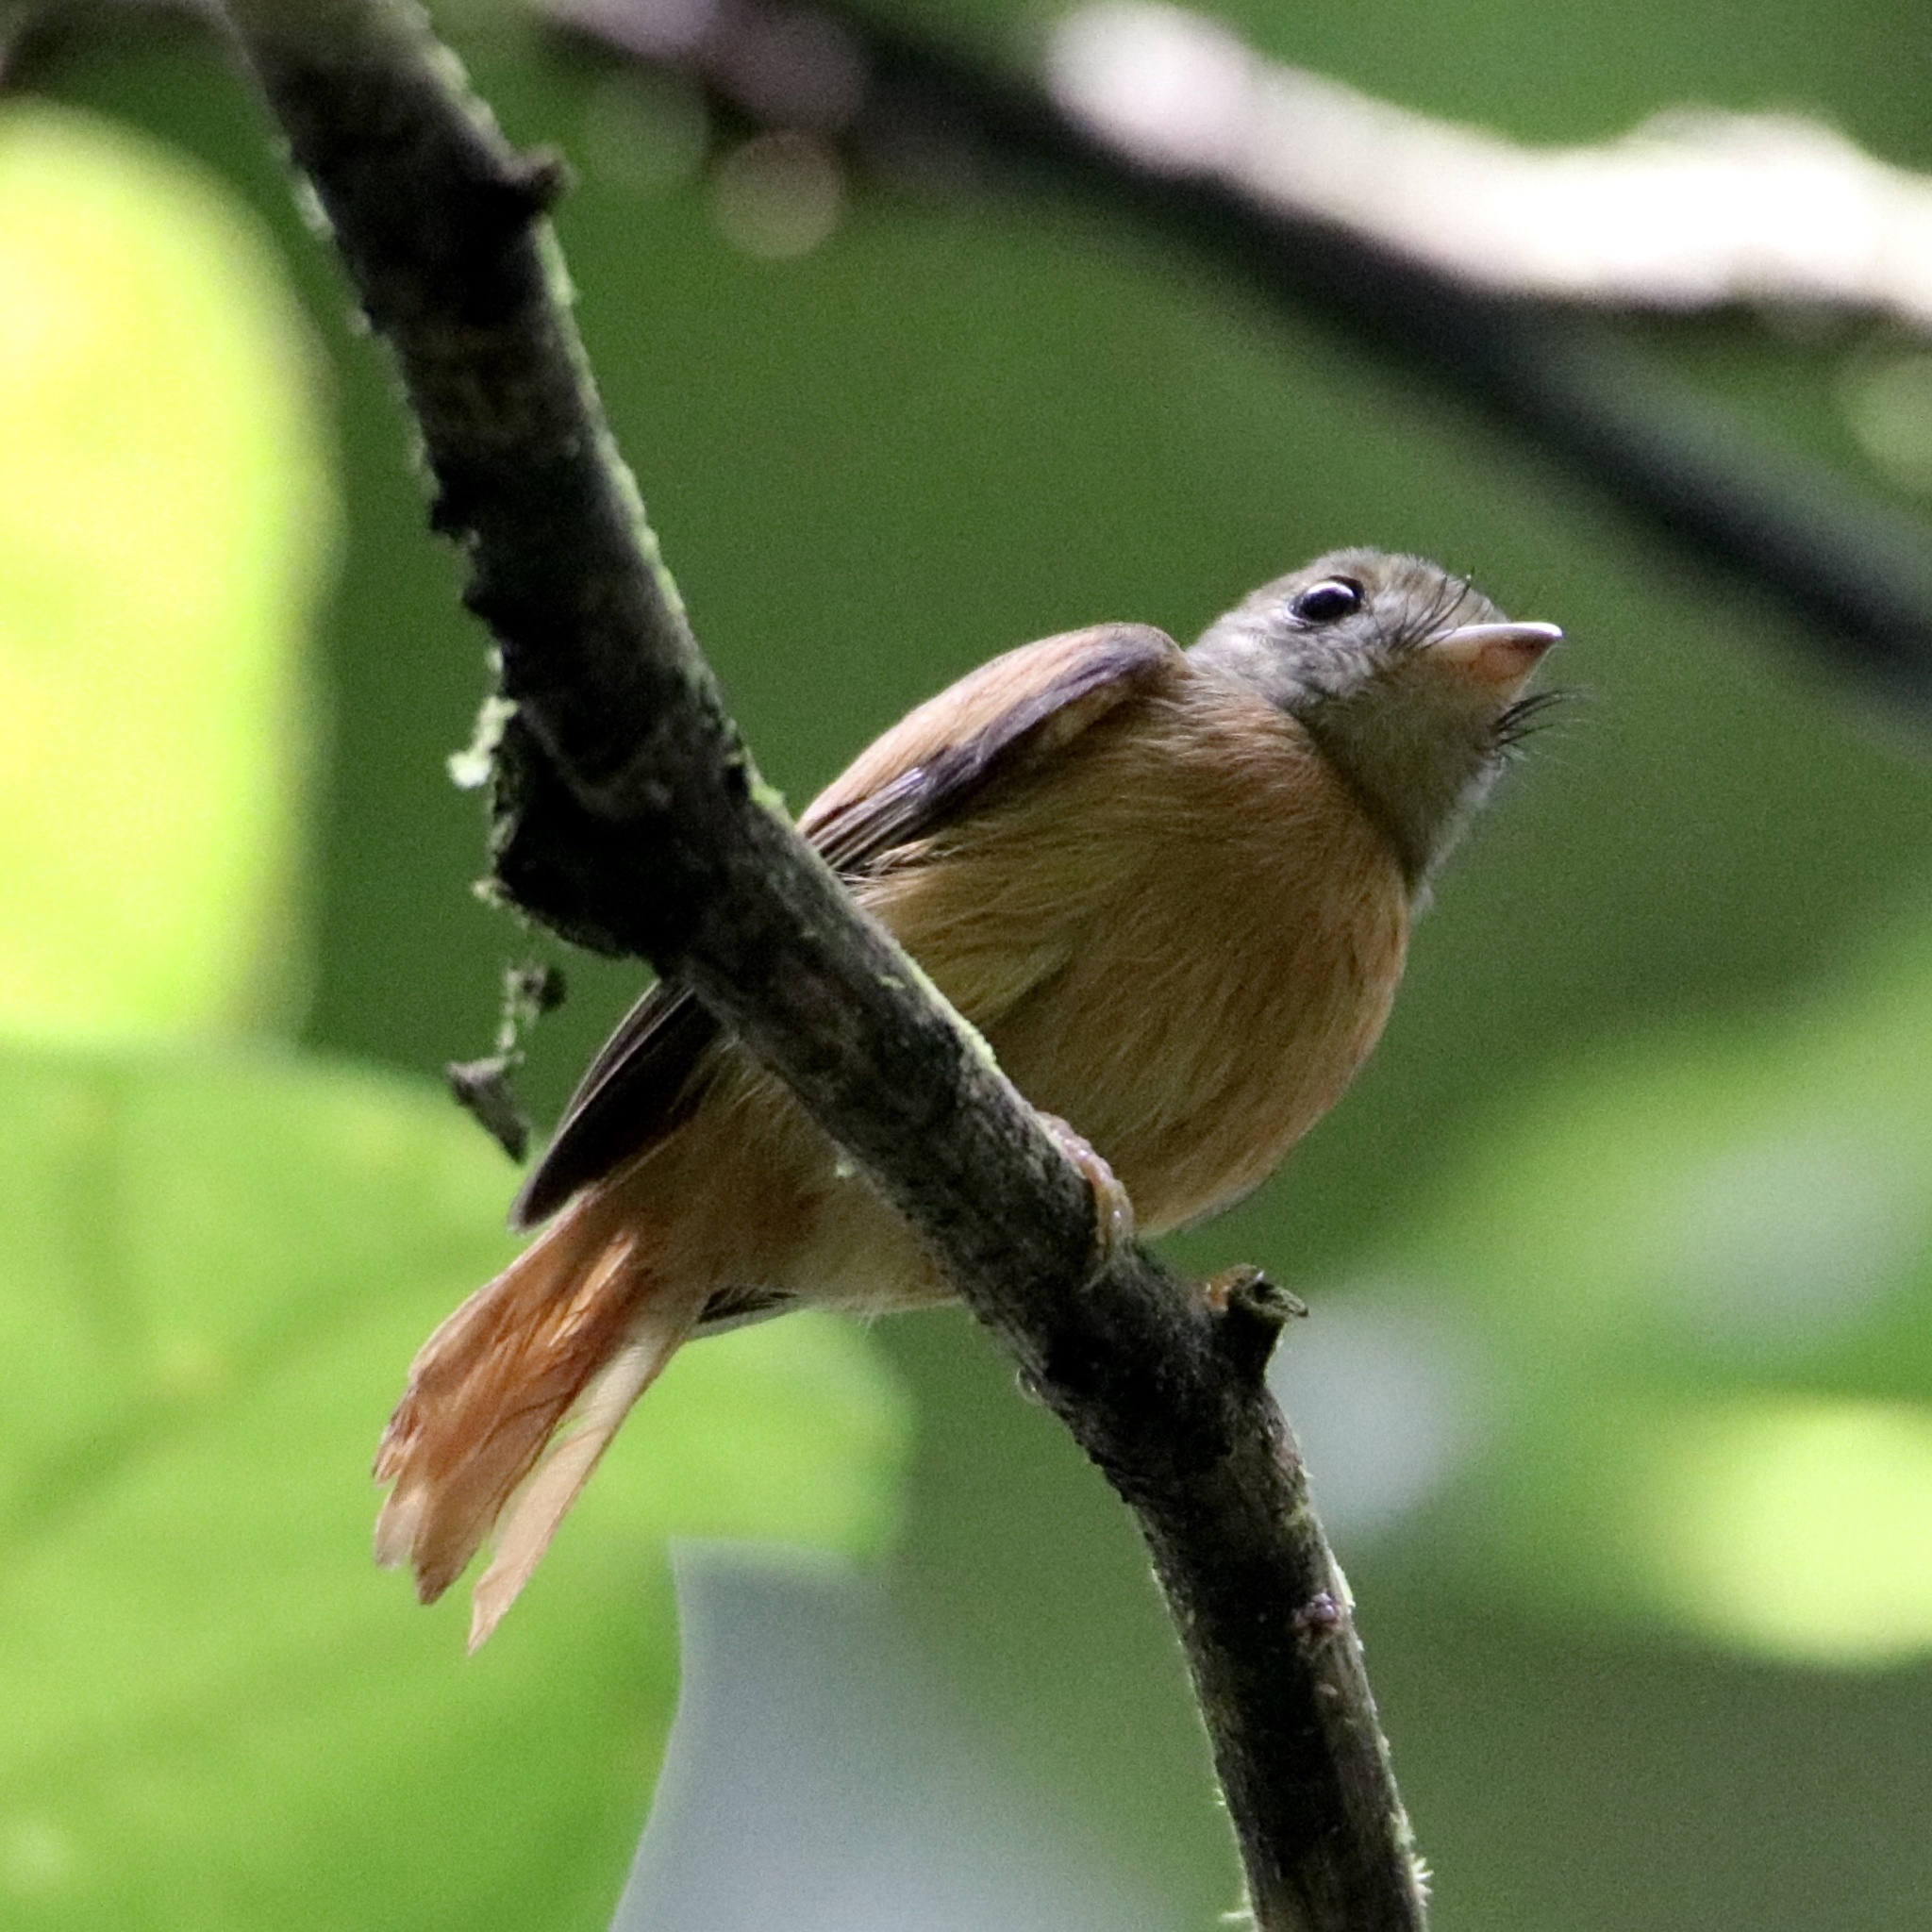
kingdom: Animalia
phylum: Chordata
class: Aves
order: Passeriformes
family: Tyrannidae
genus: Terenotriccus
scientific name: Terenotriccus erythrurus
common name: Ruddy-tailed flycatcher
